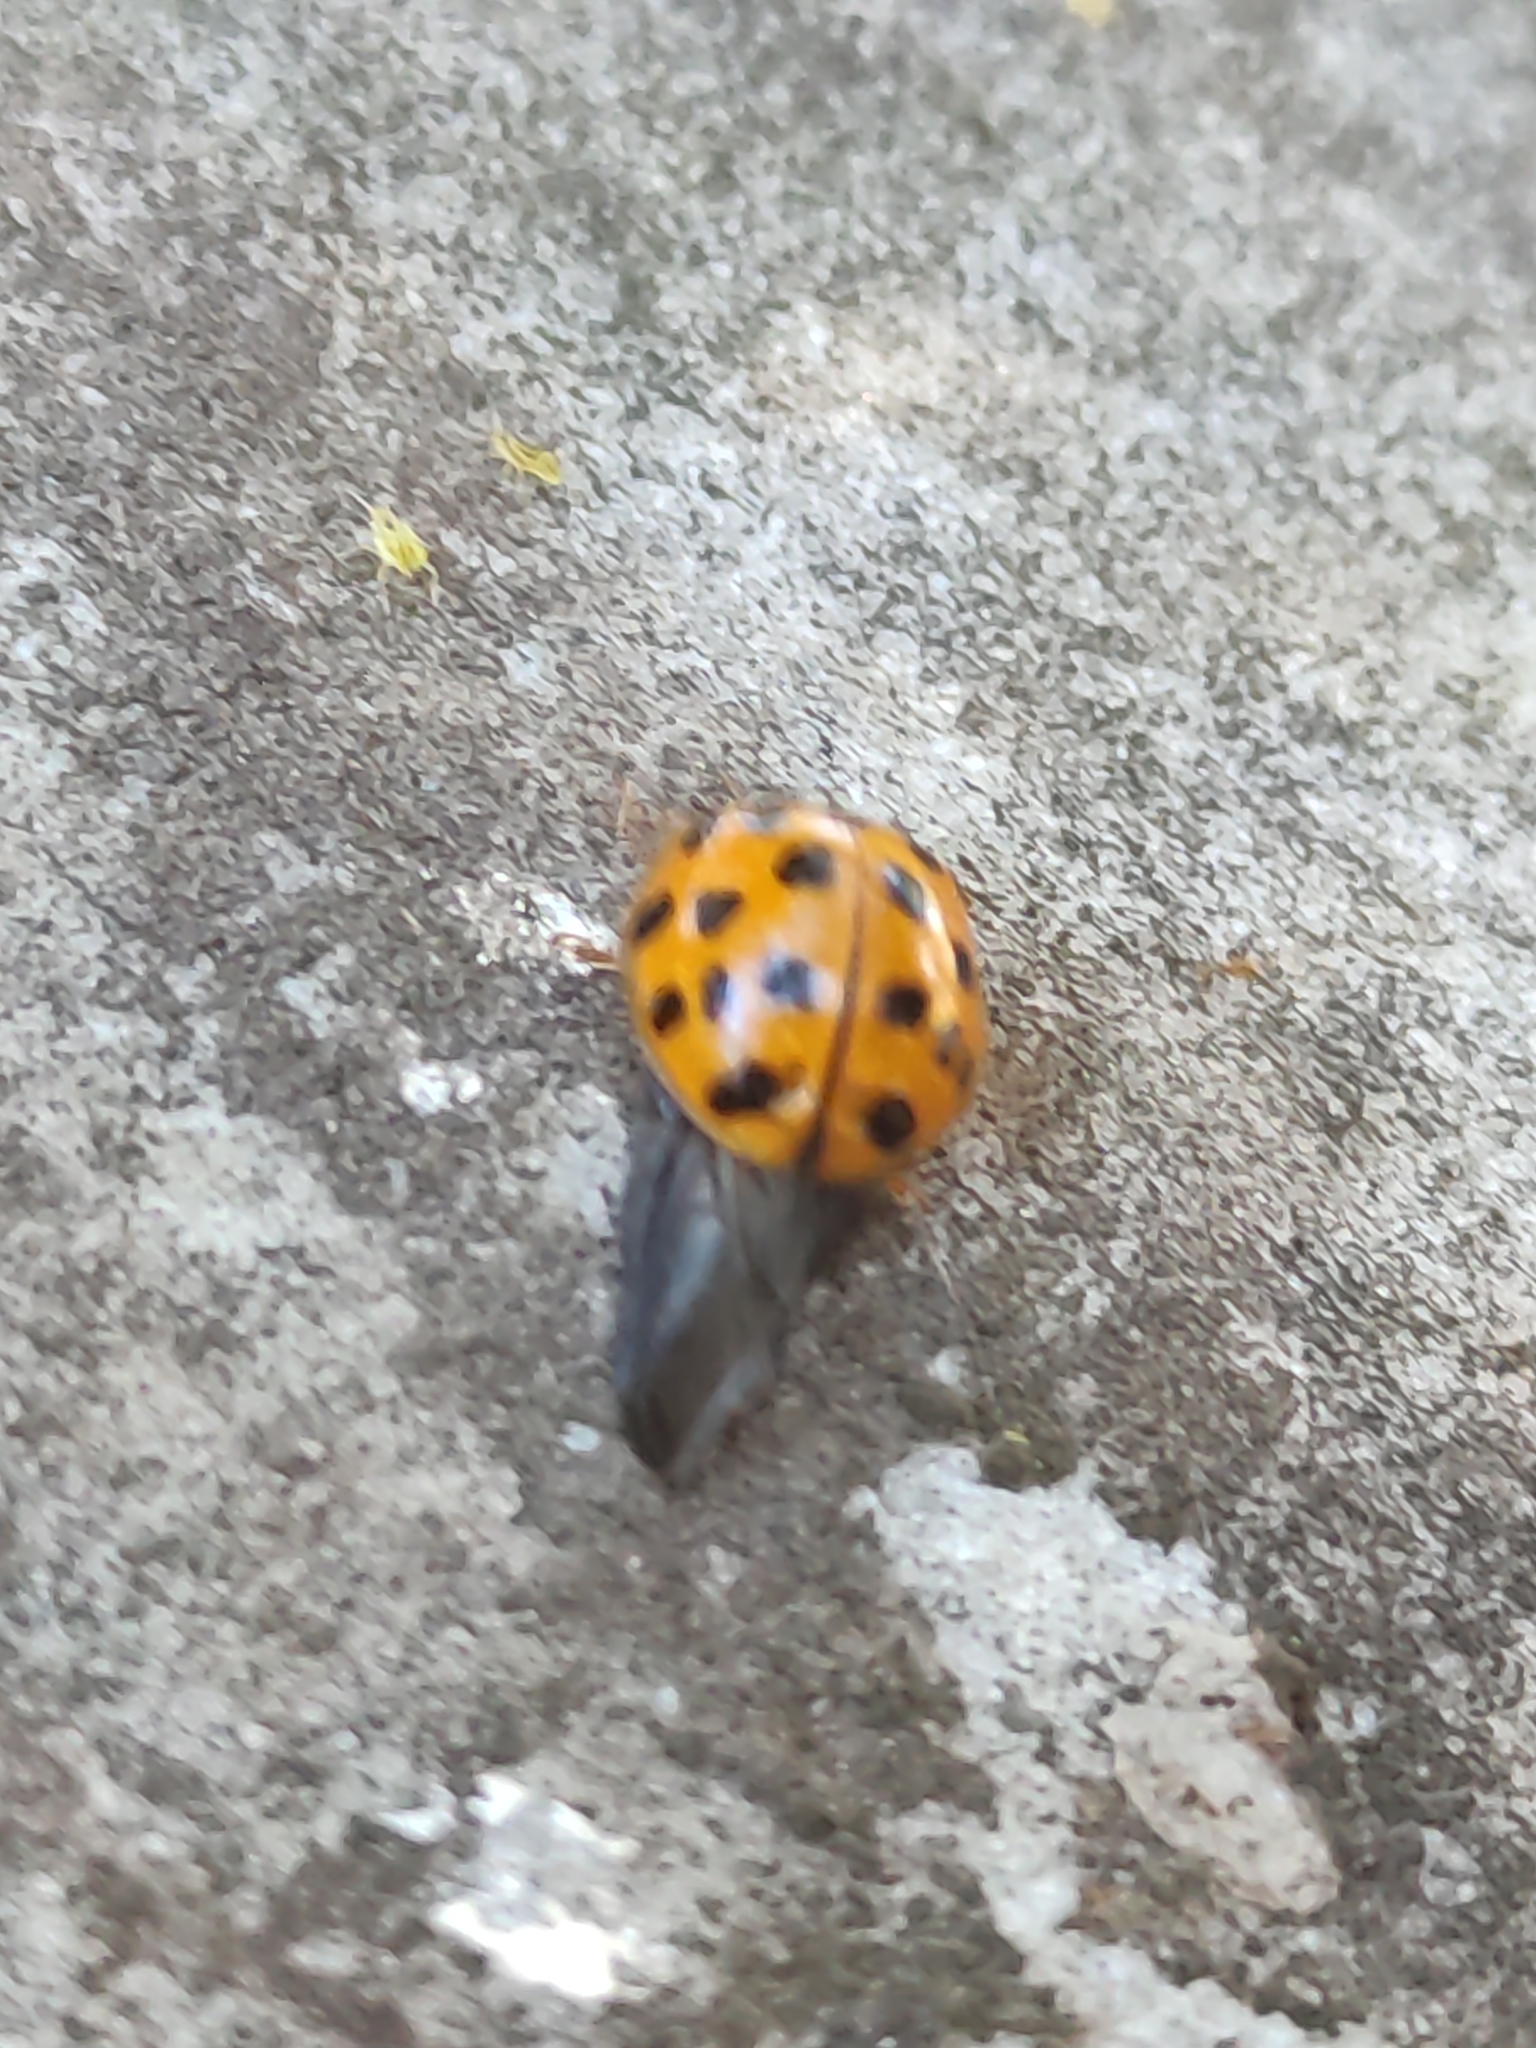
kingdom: Animalia
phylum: Arthropoda
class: Insecta
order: Coleoptera
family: Coccinellidae
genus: Harmonia
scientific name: Harmonia axyridis
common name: Harlequin ladybird
